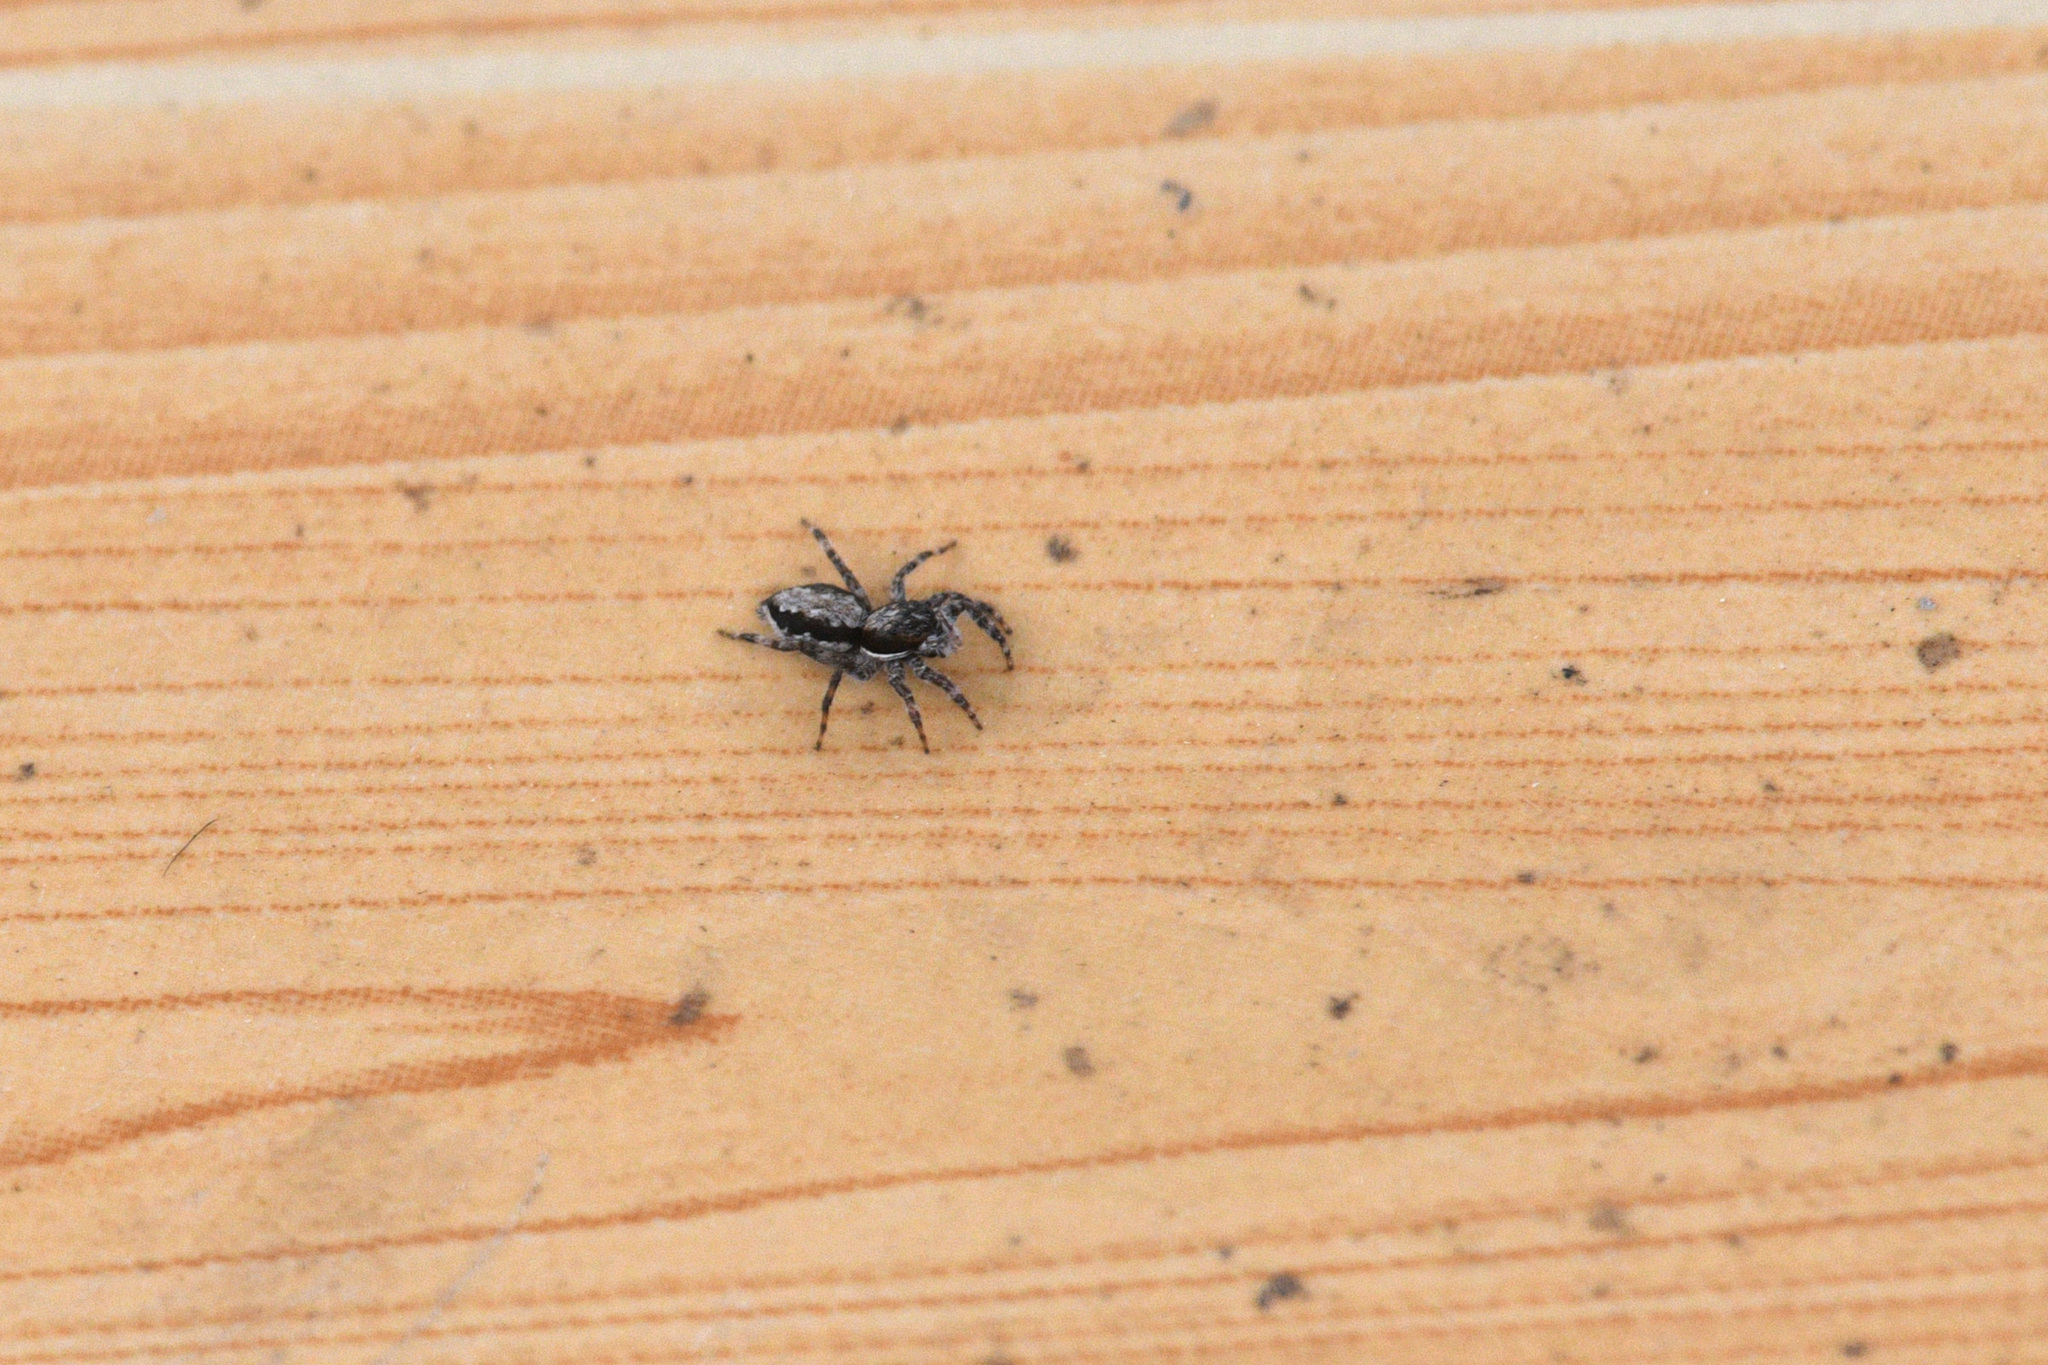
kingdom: Animalia
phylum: Arthropoda
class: Arachnida
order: Araneae
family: Salticidae
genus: Menemerus
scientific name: Menemerus bivittatus
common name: Gray wall jumper
